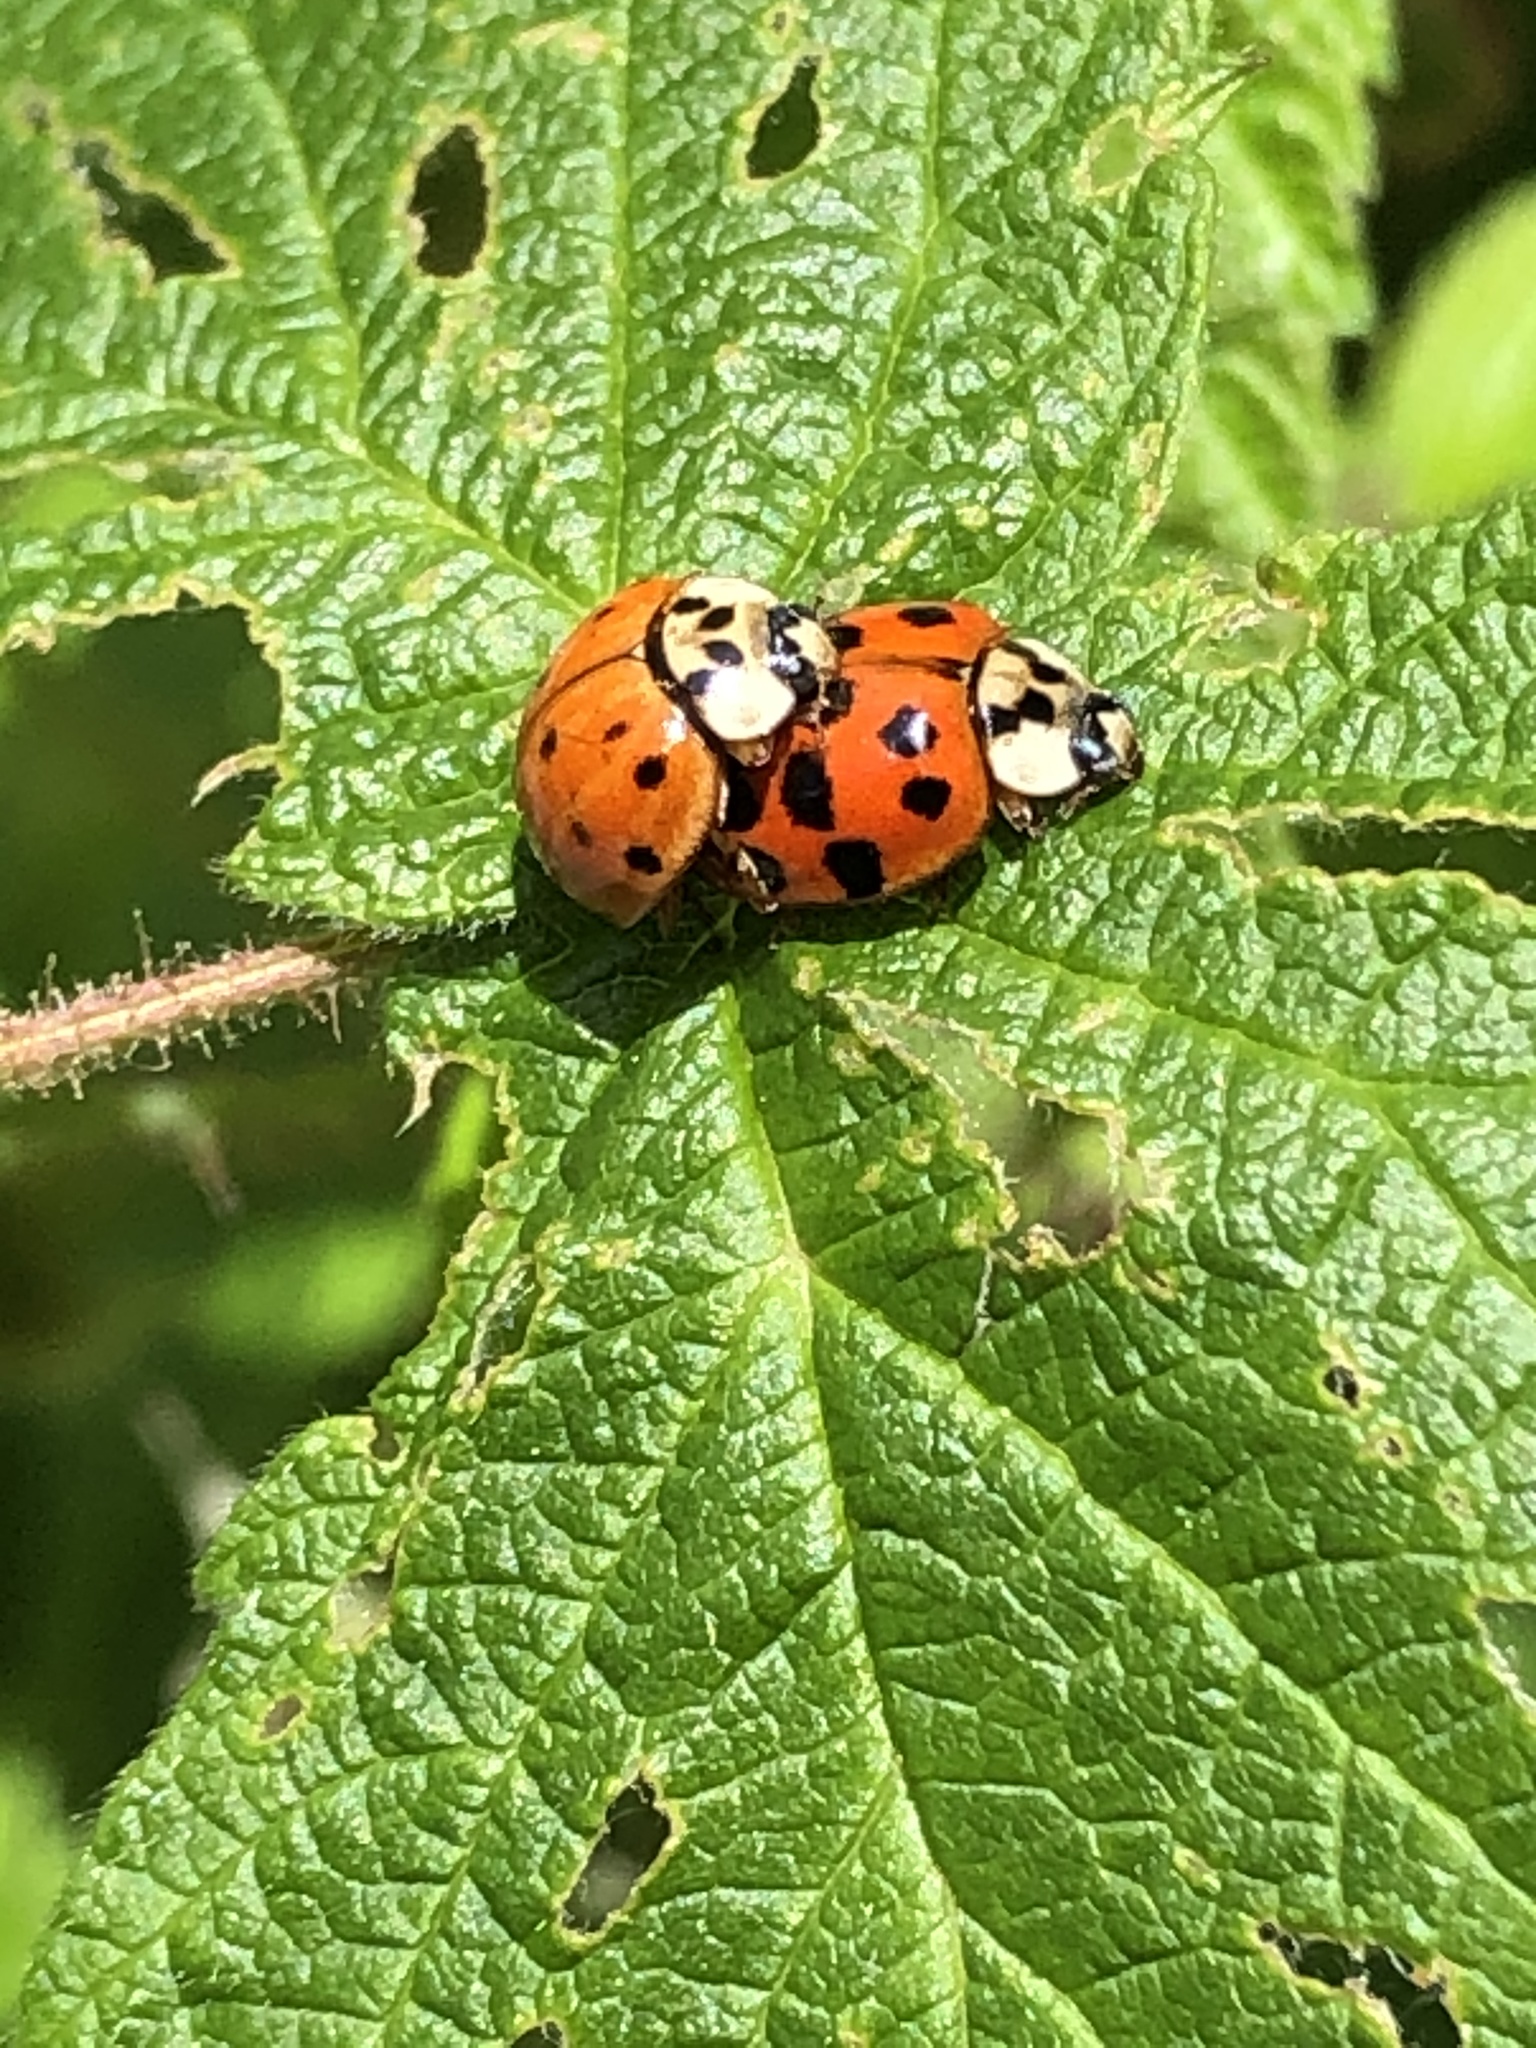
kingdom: Animalia
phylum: Arthropoda
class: Insecta
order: Coleoptera
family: Coccinellidae
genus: Harmonia
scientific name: Harmonia axyridis
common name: Harlequin ladybird
